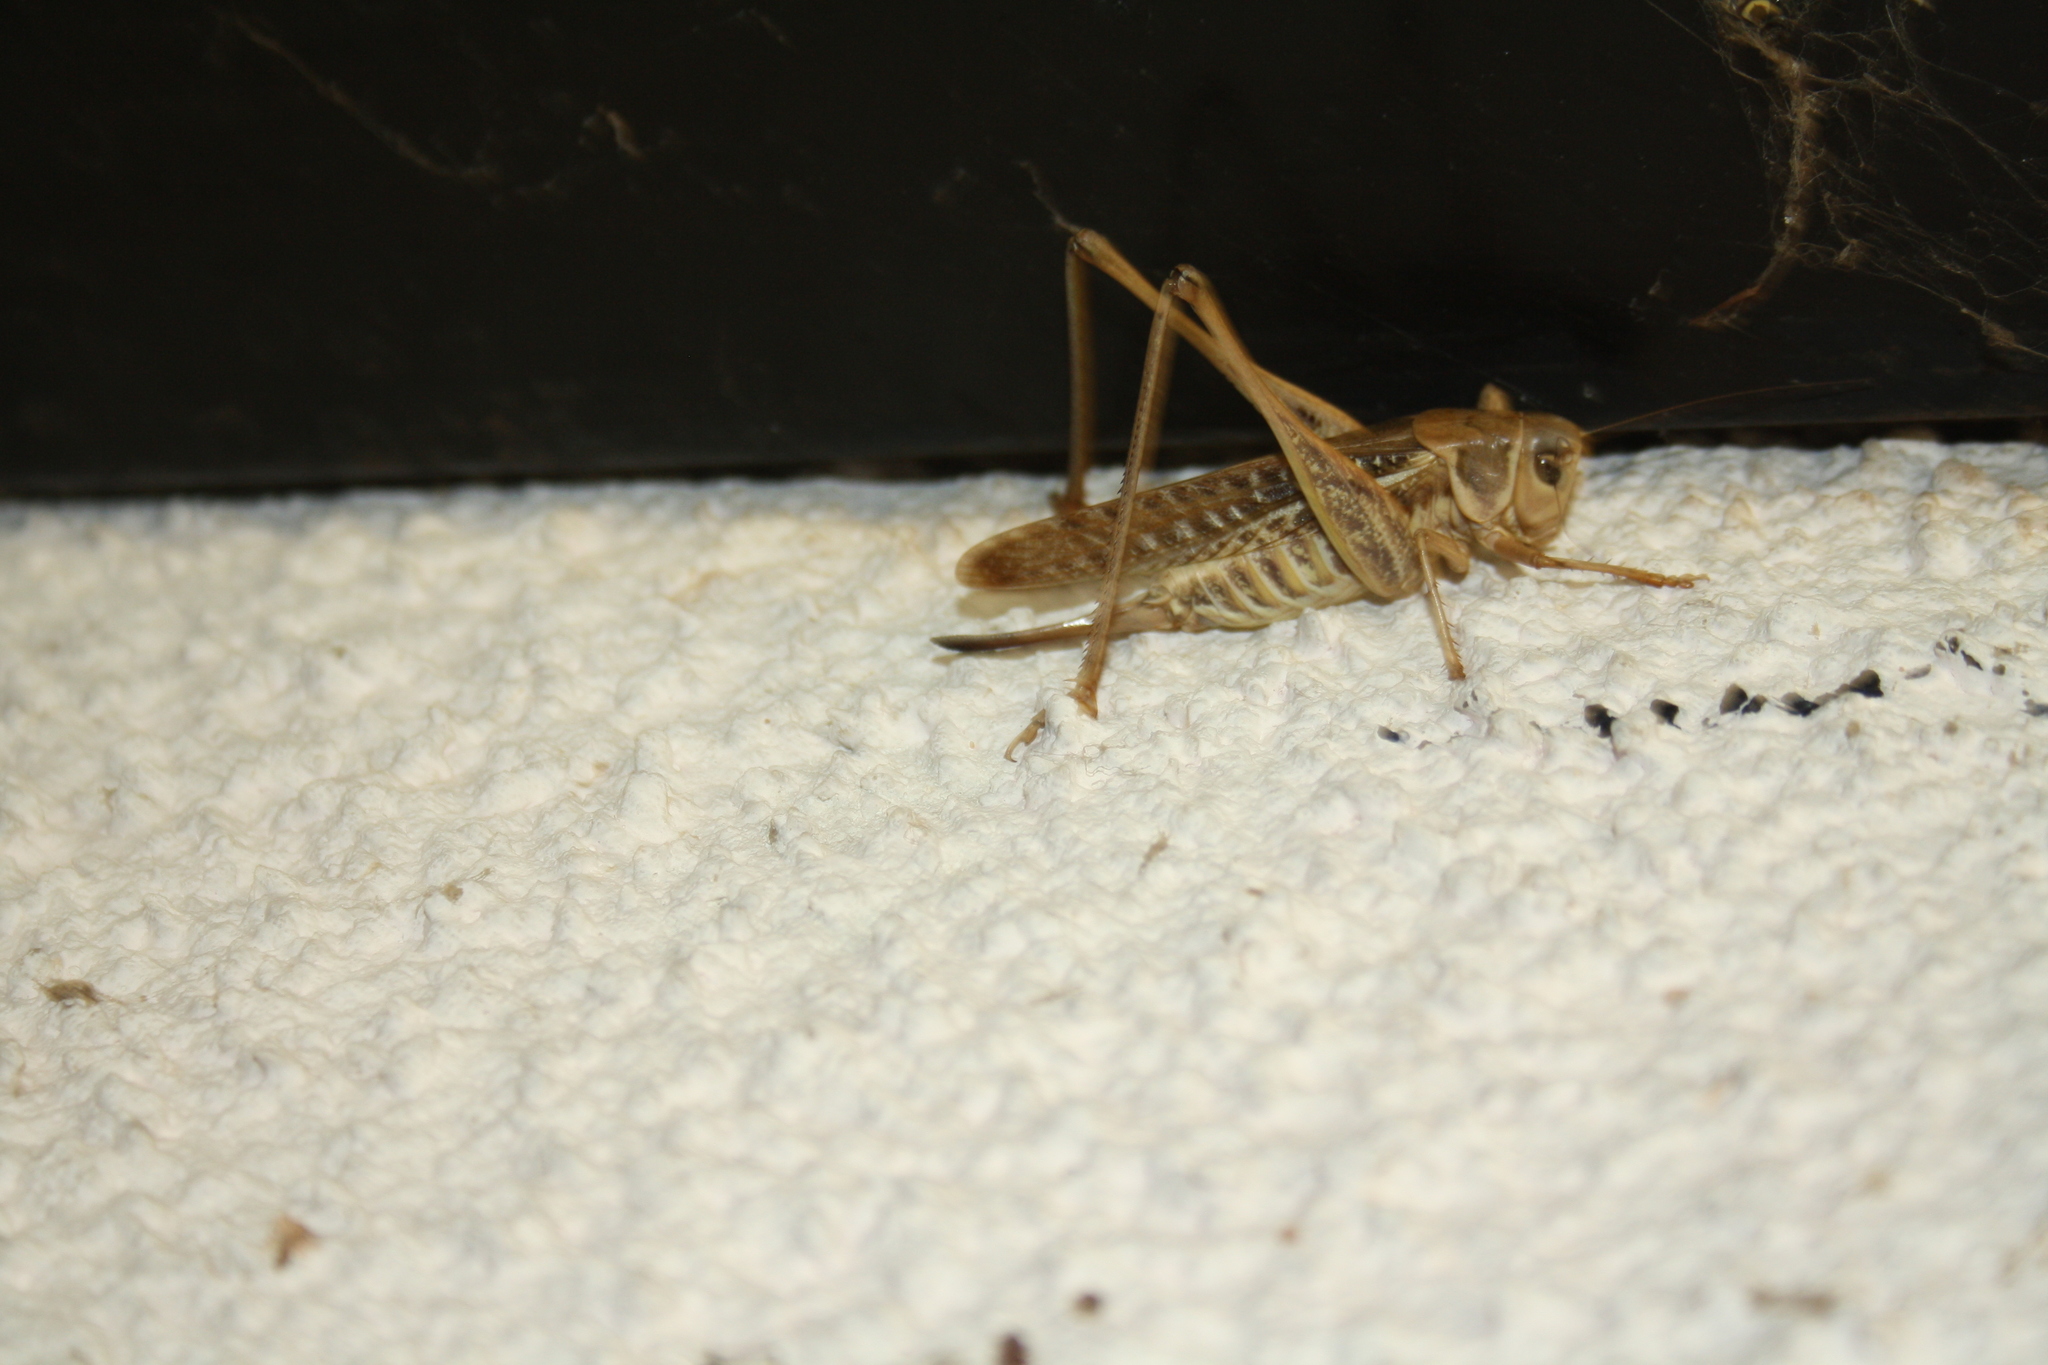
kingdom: Animalia
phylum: Arthropoda
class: Insecta
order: Orthoptera
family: Tettigoniidae
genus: Decticus
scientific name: Decticus albifrons
